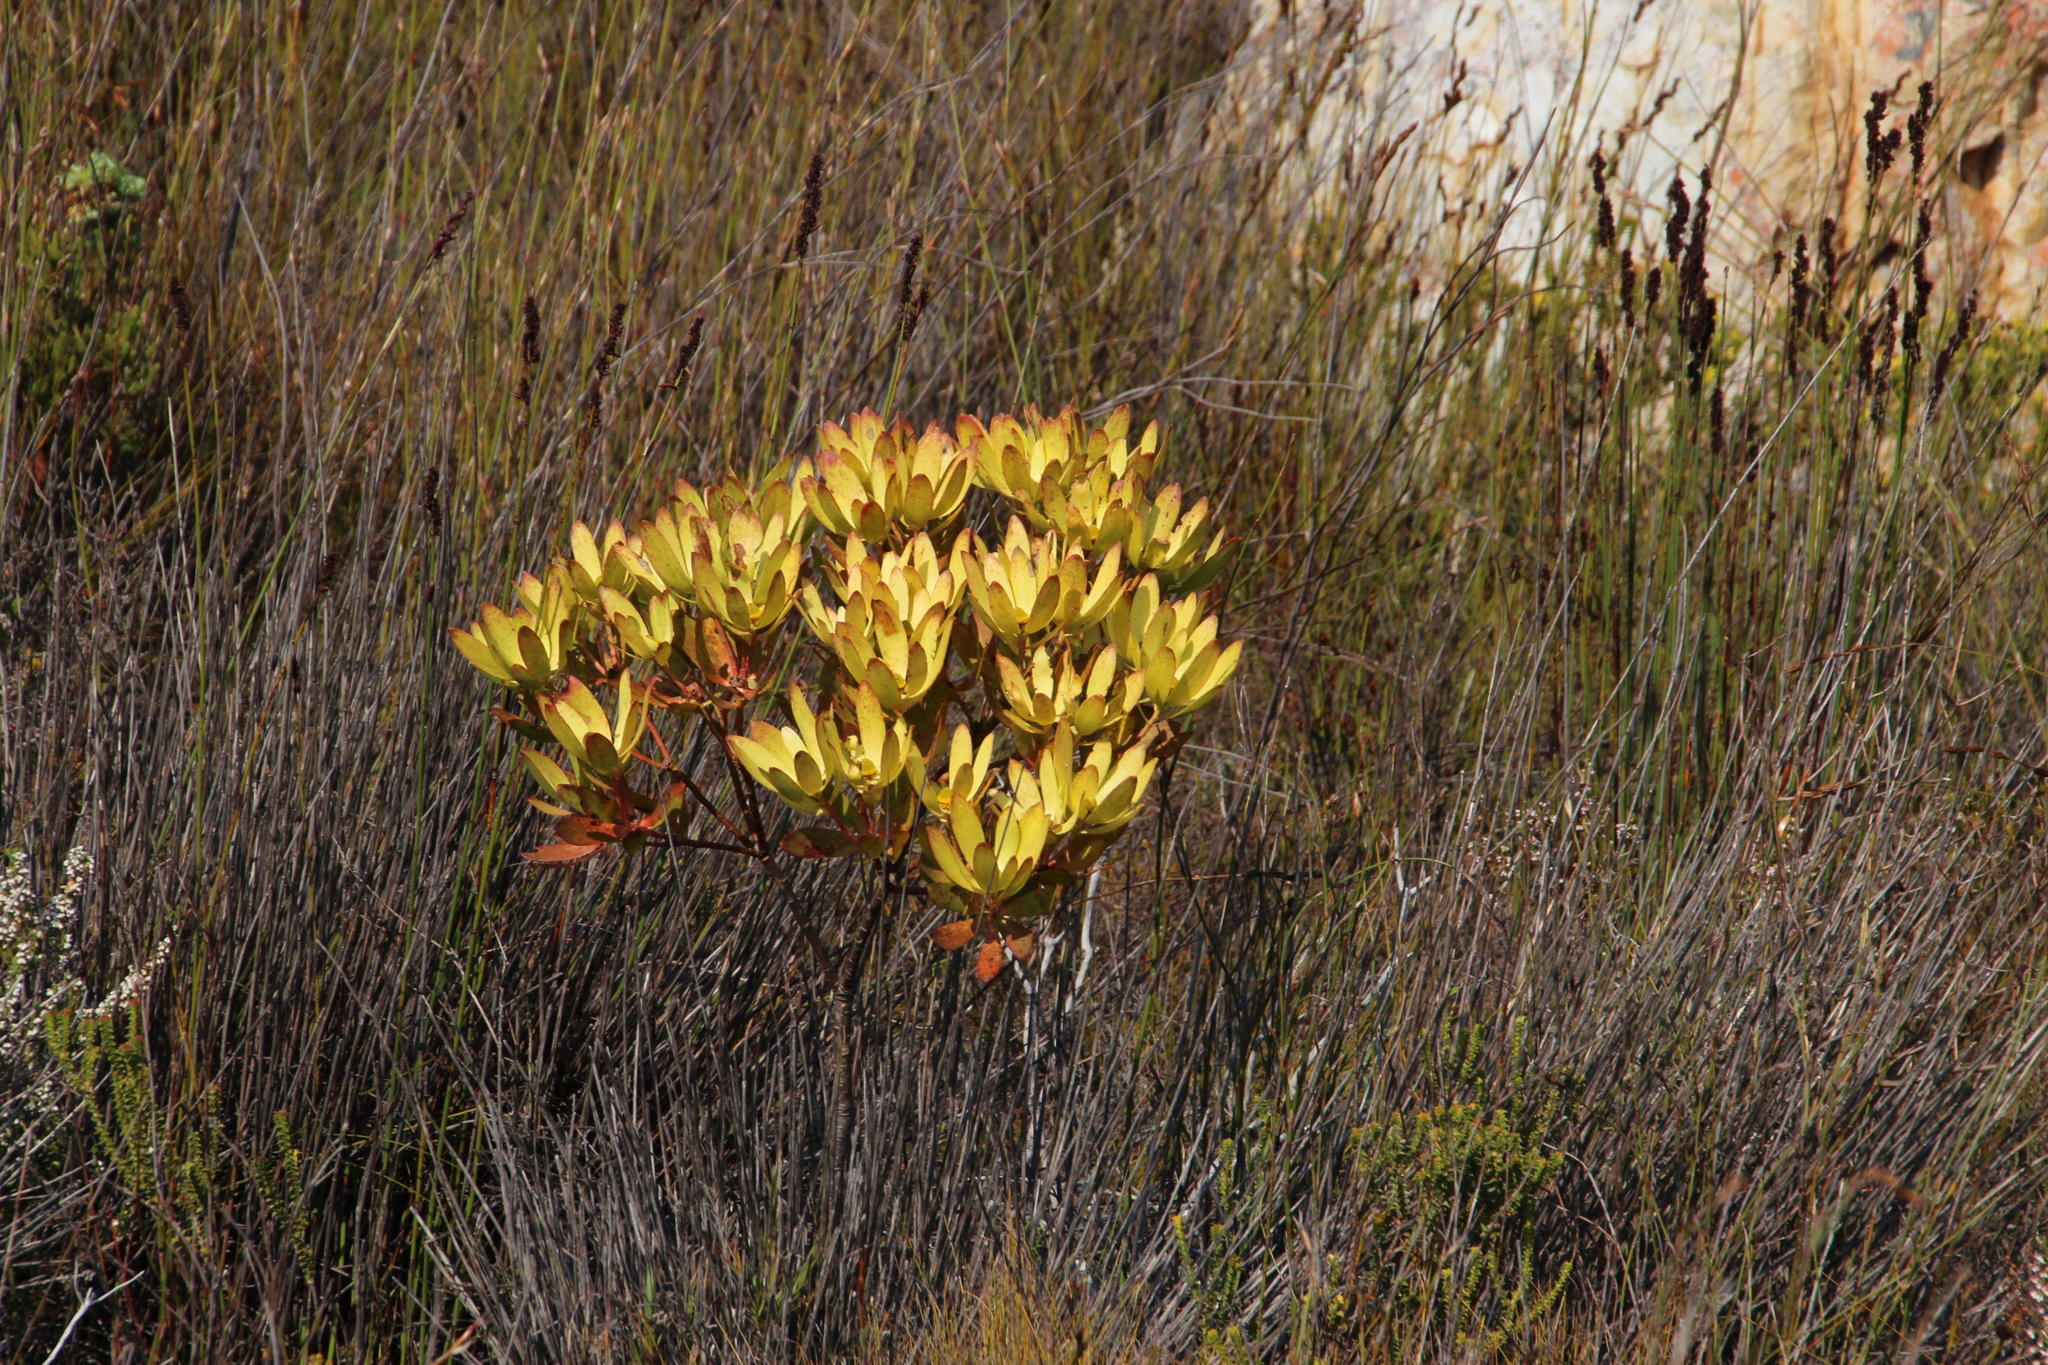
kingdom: Plantae
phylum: Tracheophyta
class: Magnoliopsida
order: Proteales
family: Proteaceae
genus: Leucadendron
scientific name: Leucadendron gandogeri
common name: Broad-leaf conebush
